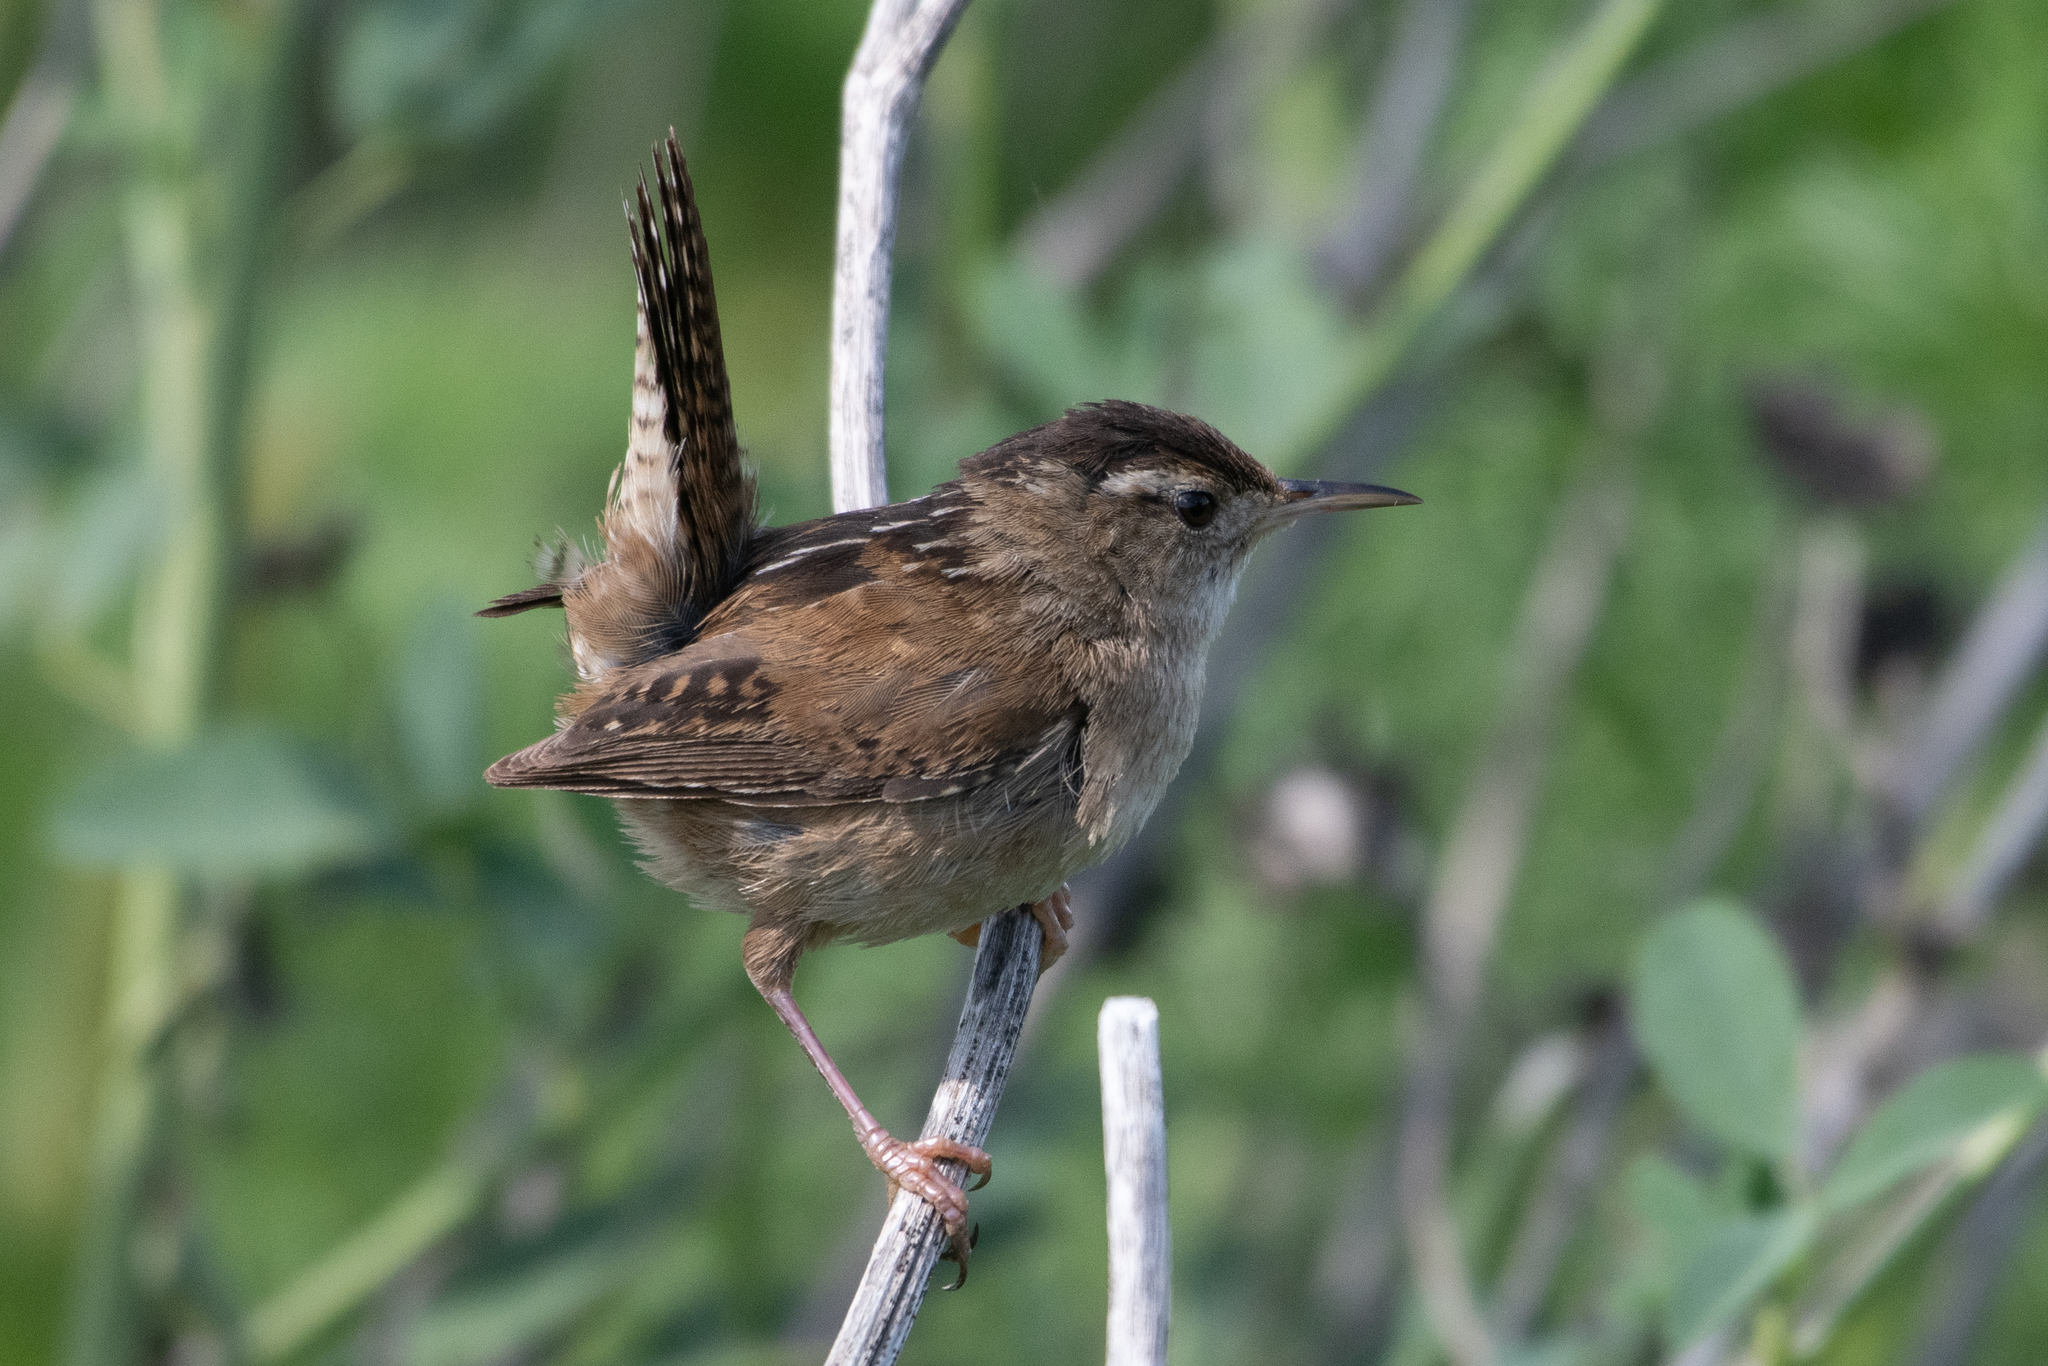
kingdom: Animalia
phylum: Chordata
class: Aves
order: Passeriformes
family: Troglodytidae
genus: Cistothorus
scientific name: Cistothorus palustris
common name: Marsh wren
